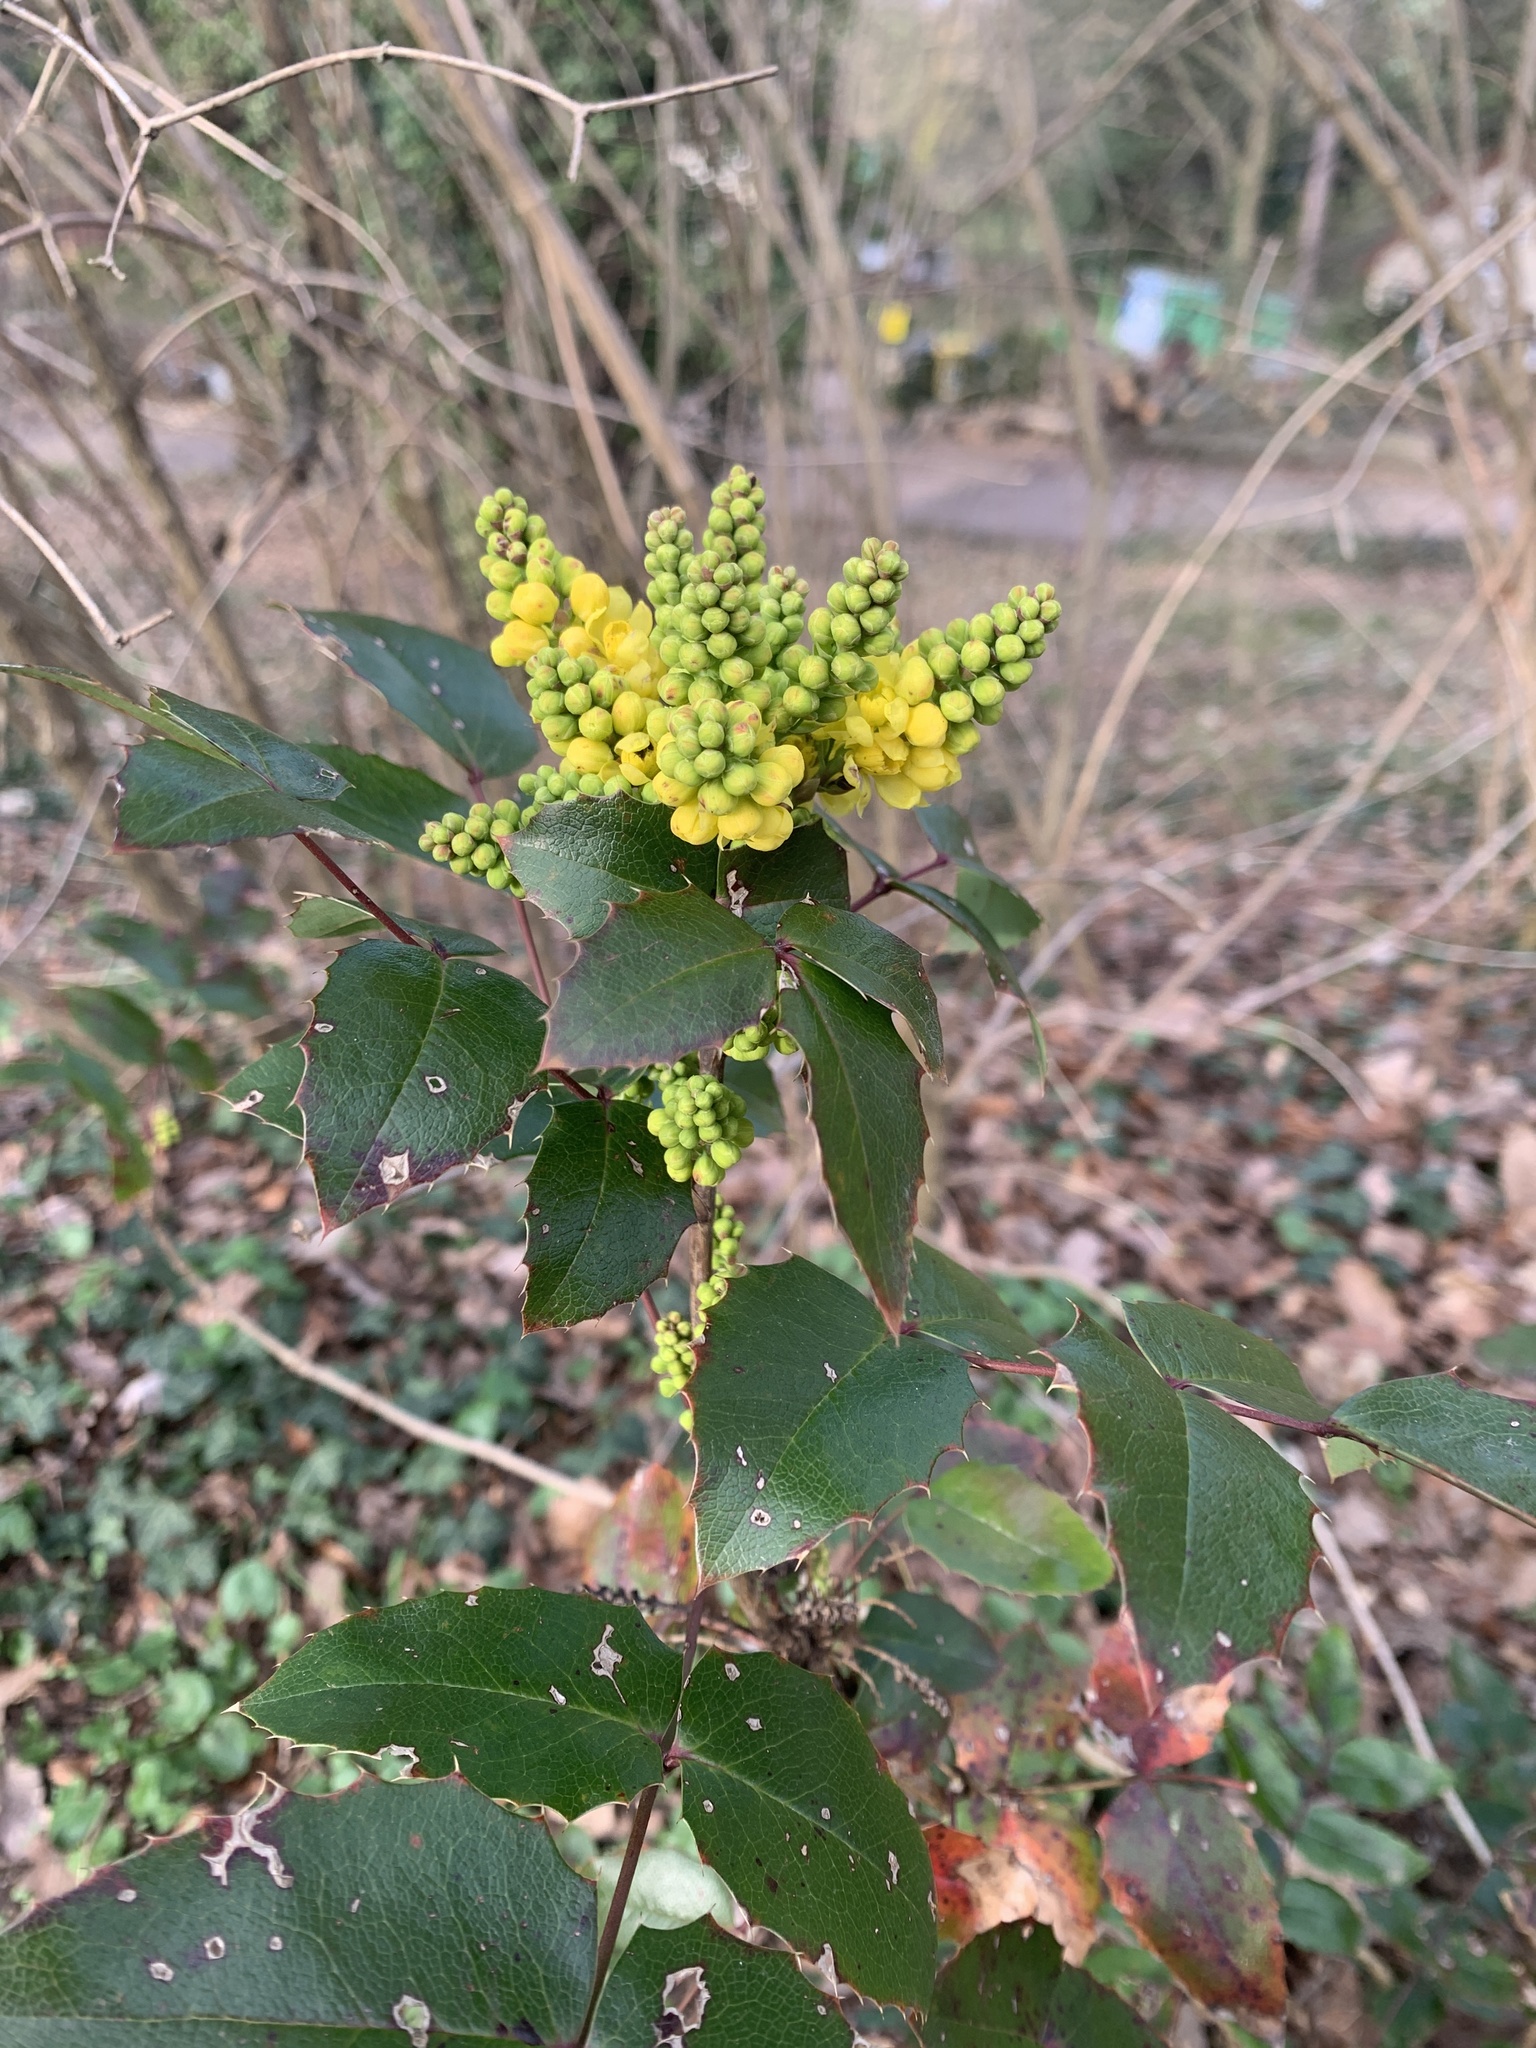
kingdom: Plantae
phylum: Tracheophyta
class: Magnoliopsida
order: Ranunculales
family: Berberidaceae
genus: Mahonia
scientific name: Mahonia aquifolium
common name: Oregon-grape
